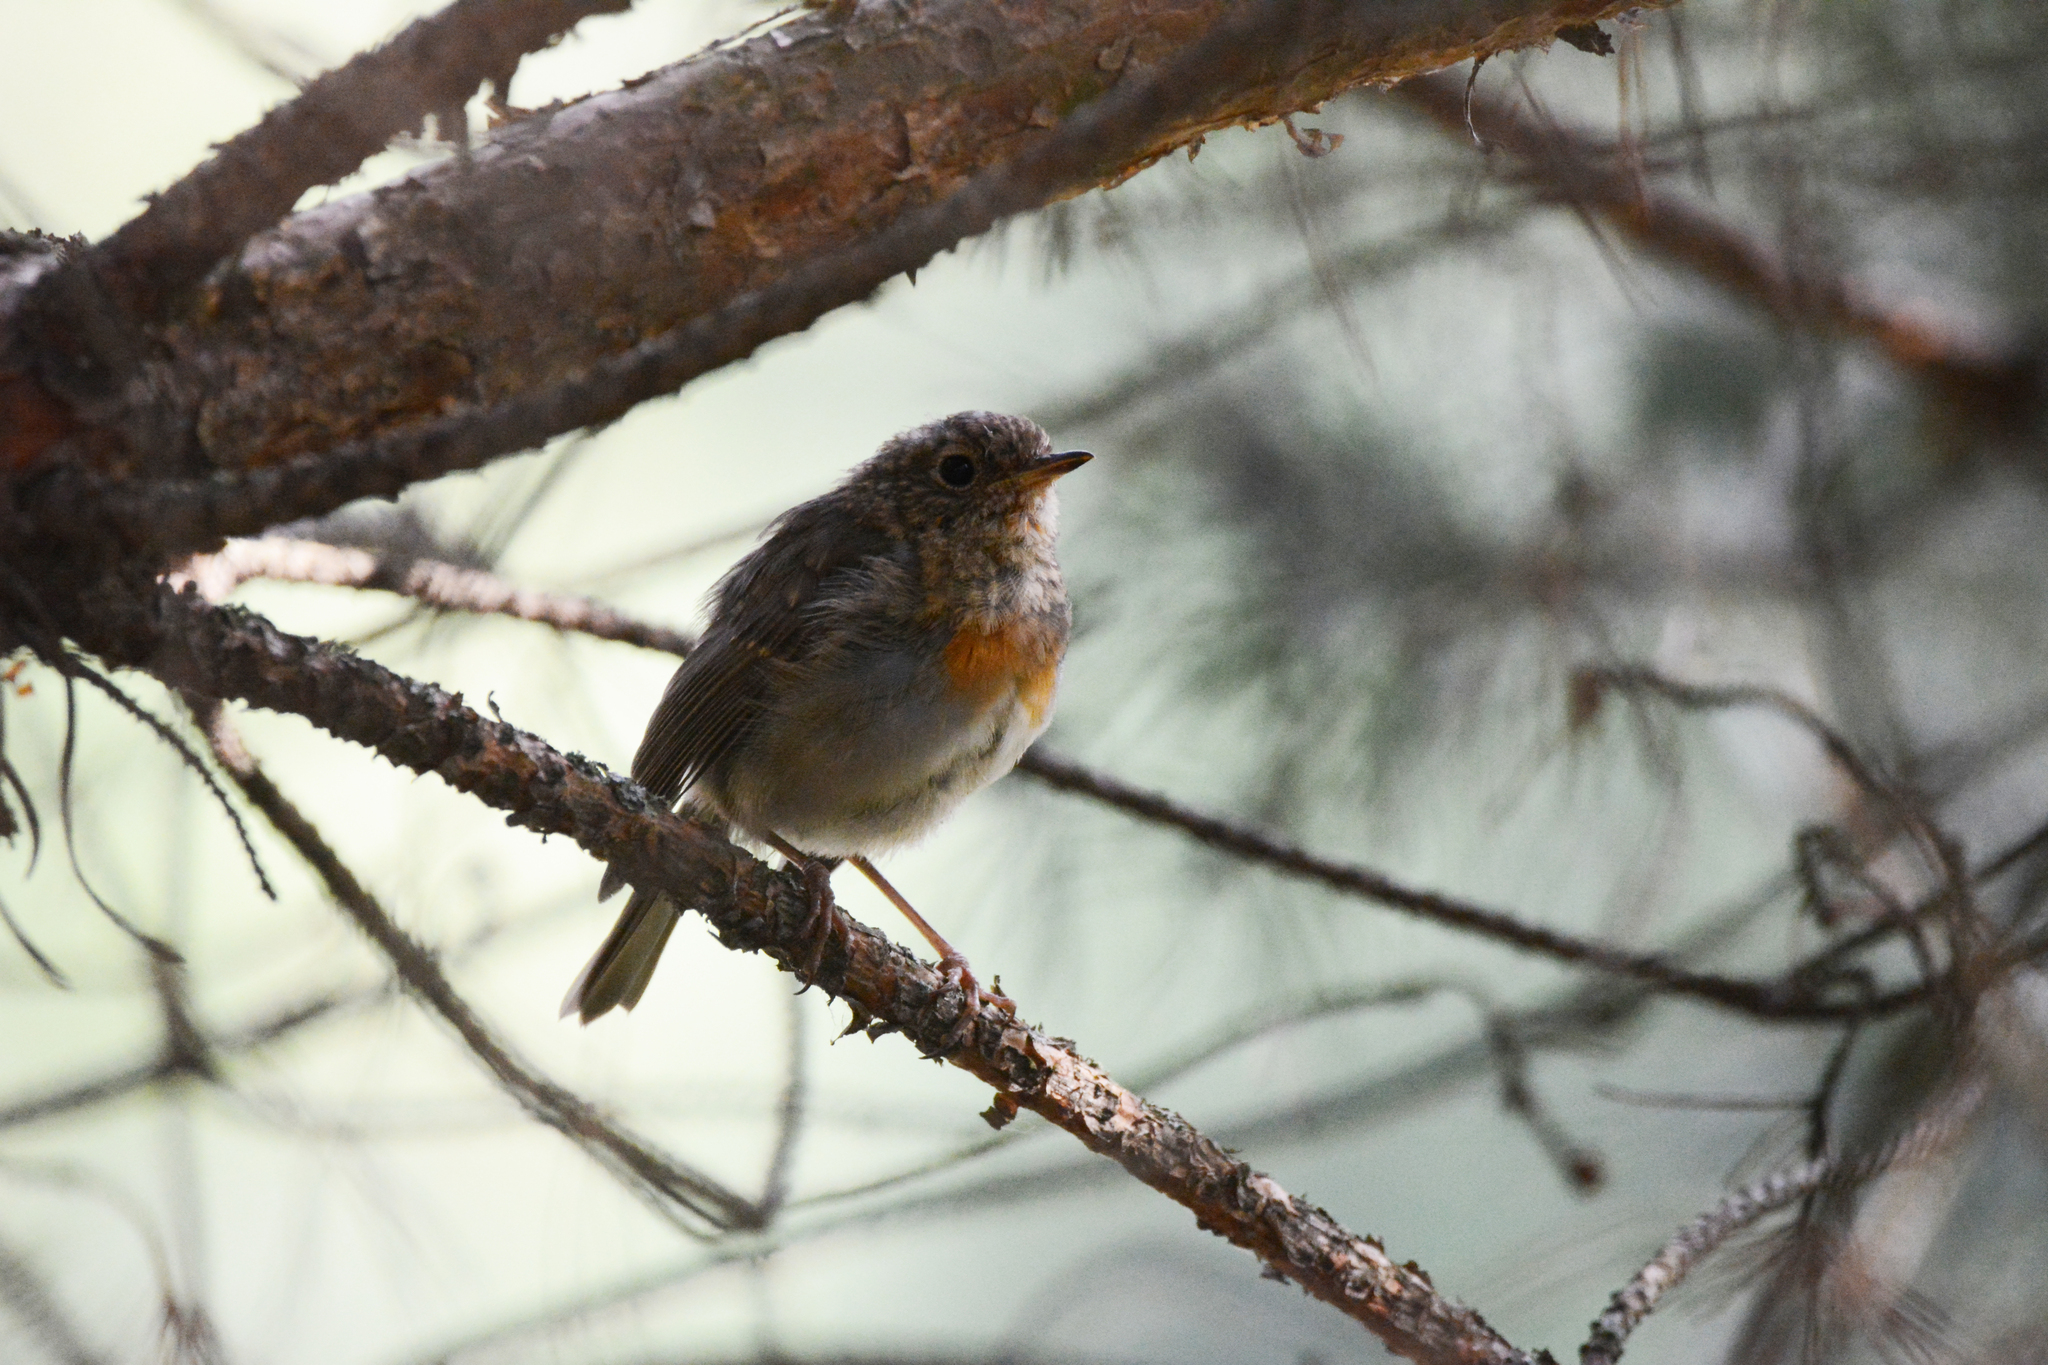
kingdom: Animalia
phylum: Chordata
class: Aves
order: Passeriformes
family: Muscicapidae
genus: Erithacus
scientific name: Erithacus rubecula
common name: European robin
